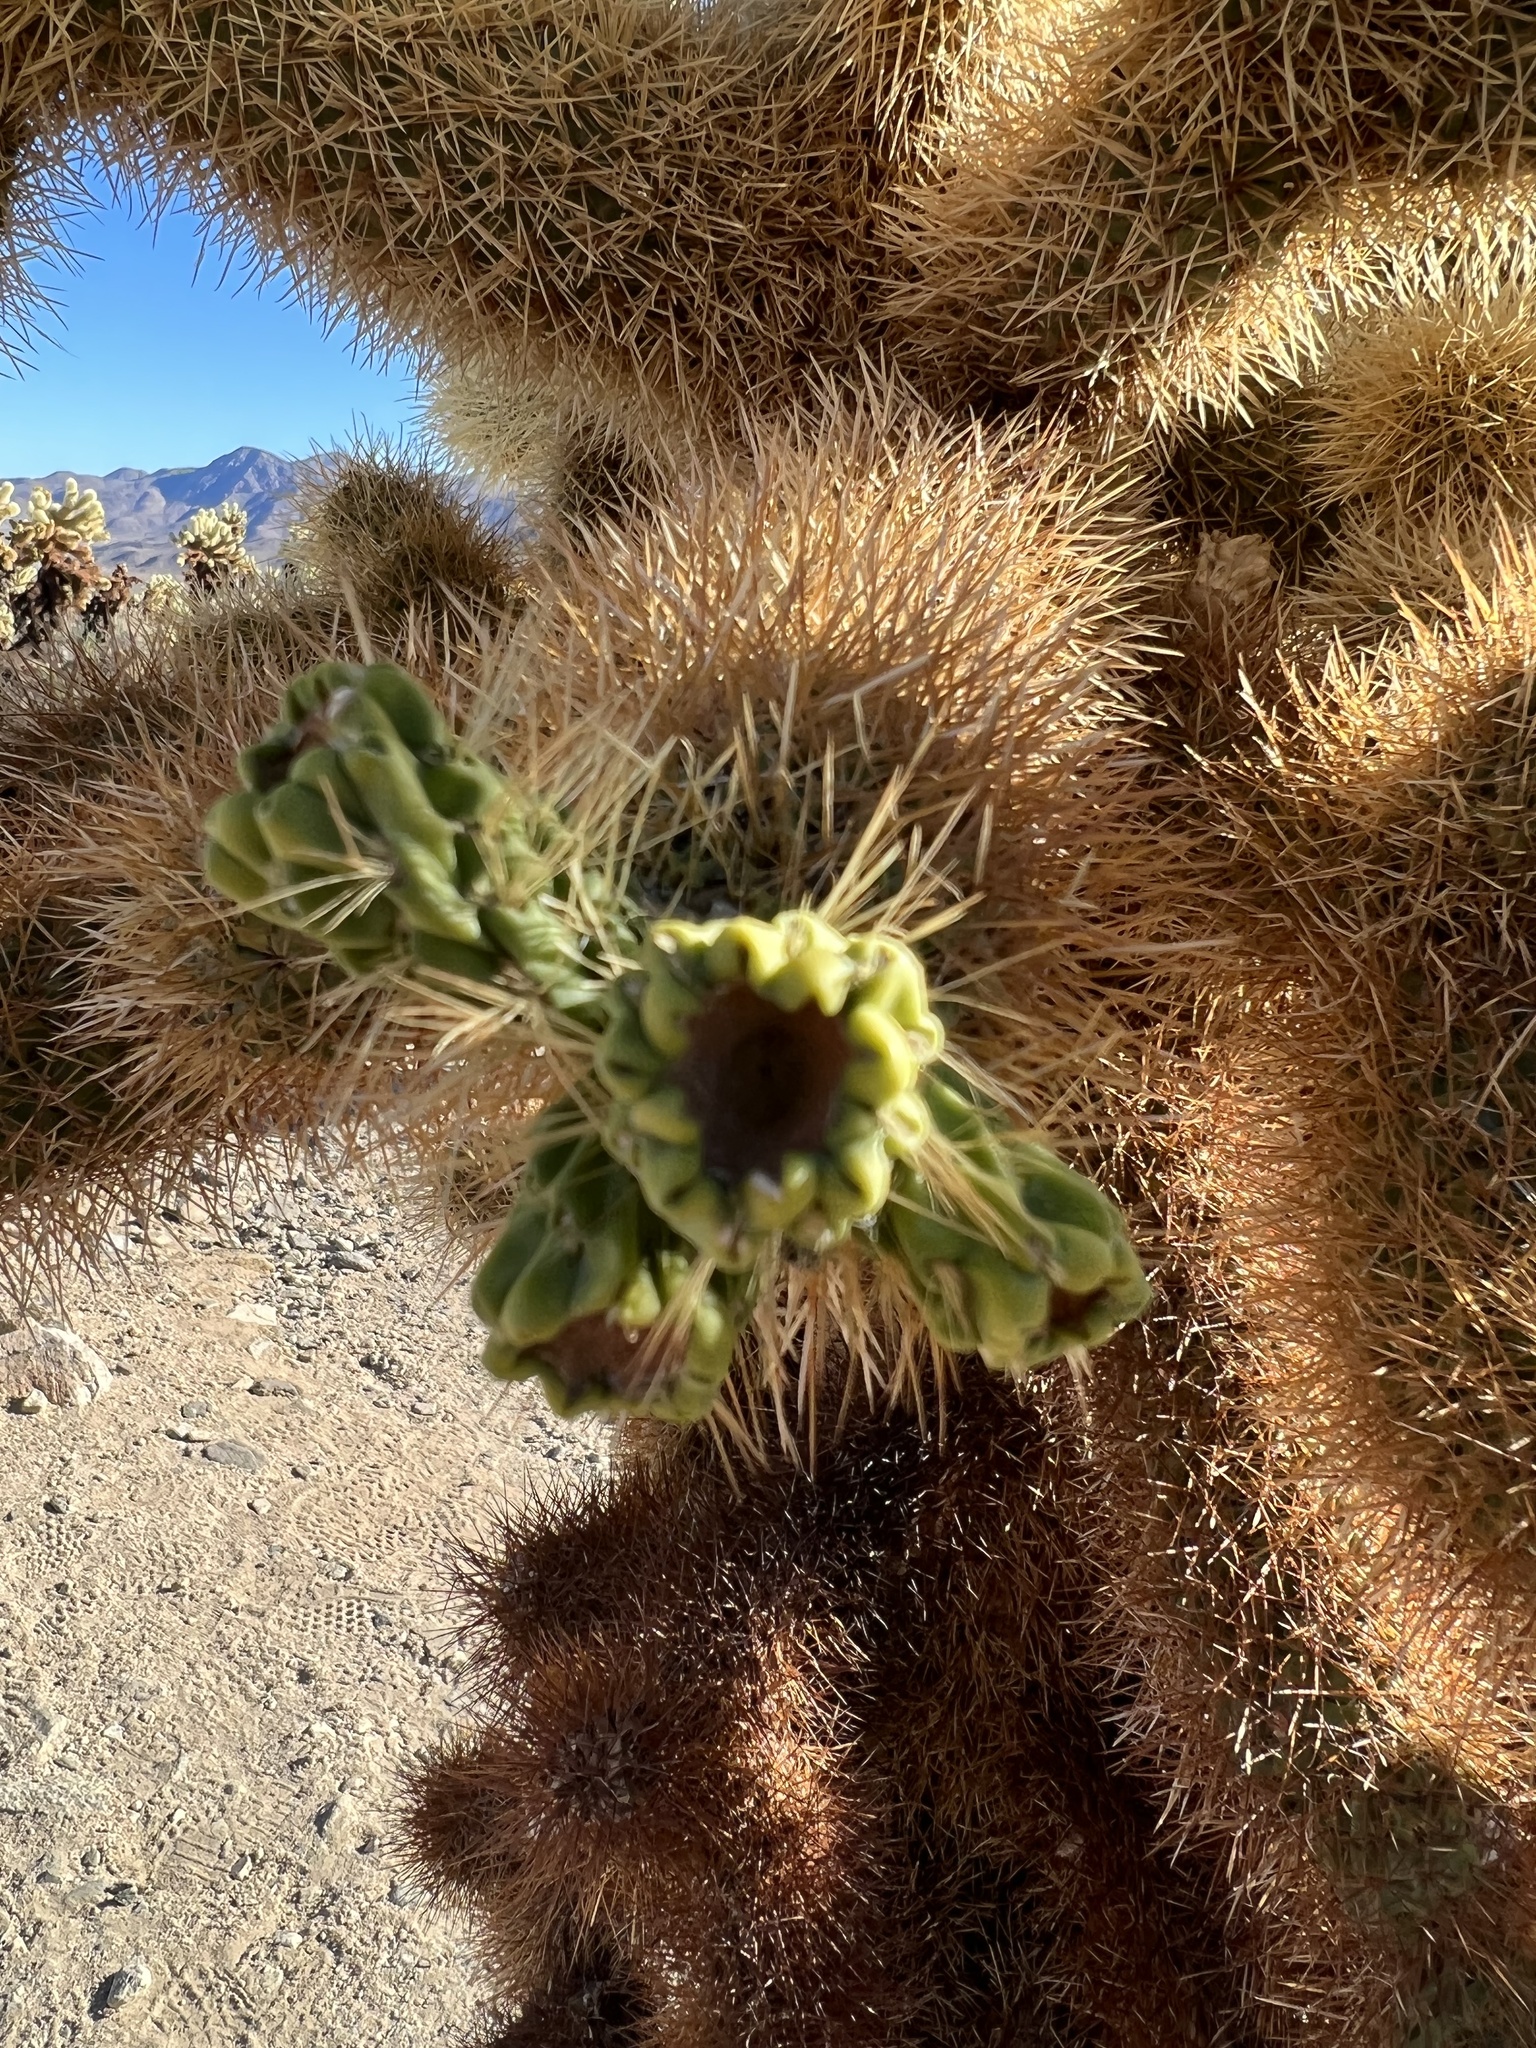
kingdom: Plantae
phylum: Tracheophyta
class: Magnoliopsida
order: Caryophyllales
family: Cactaceae
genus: Cylindropuntia
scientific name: Cylindropuntia fosbergii
